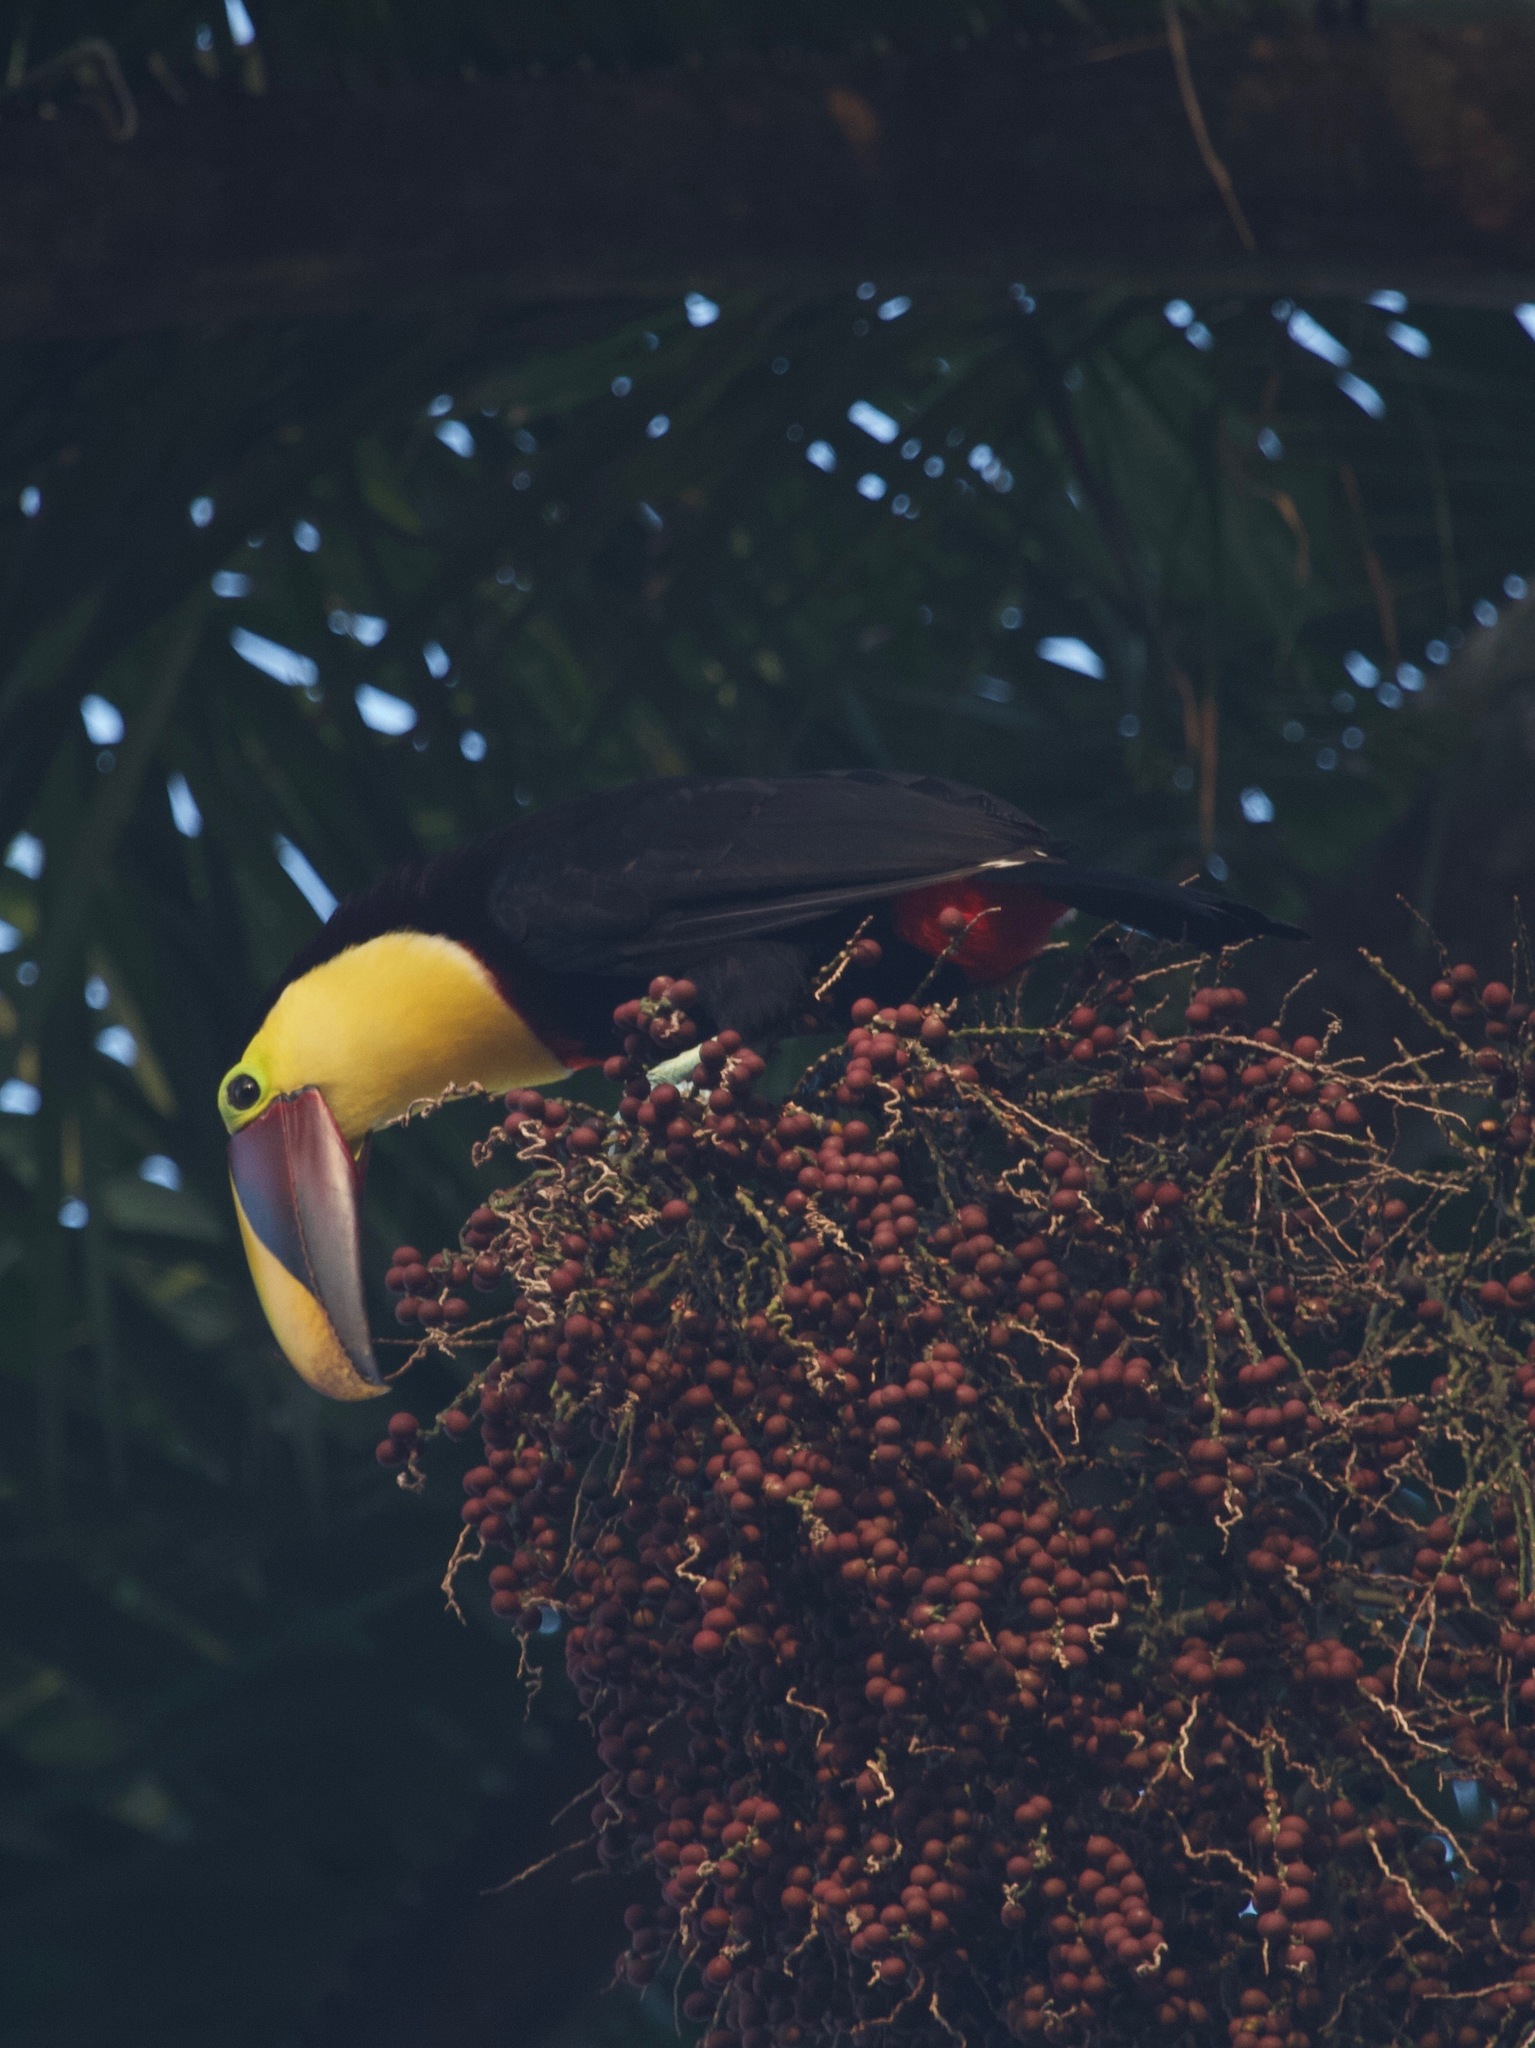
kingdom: Animalia
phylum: Chordata
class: Aves
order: Piciformes
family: Ramphastidae
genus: Ramphastos
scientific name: Ramphastos ambiguus
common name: Yellow-throated toucan
